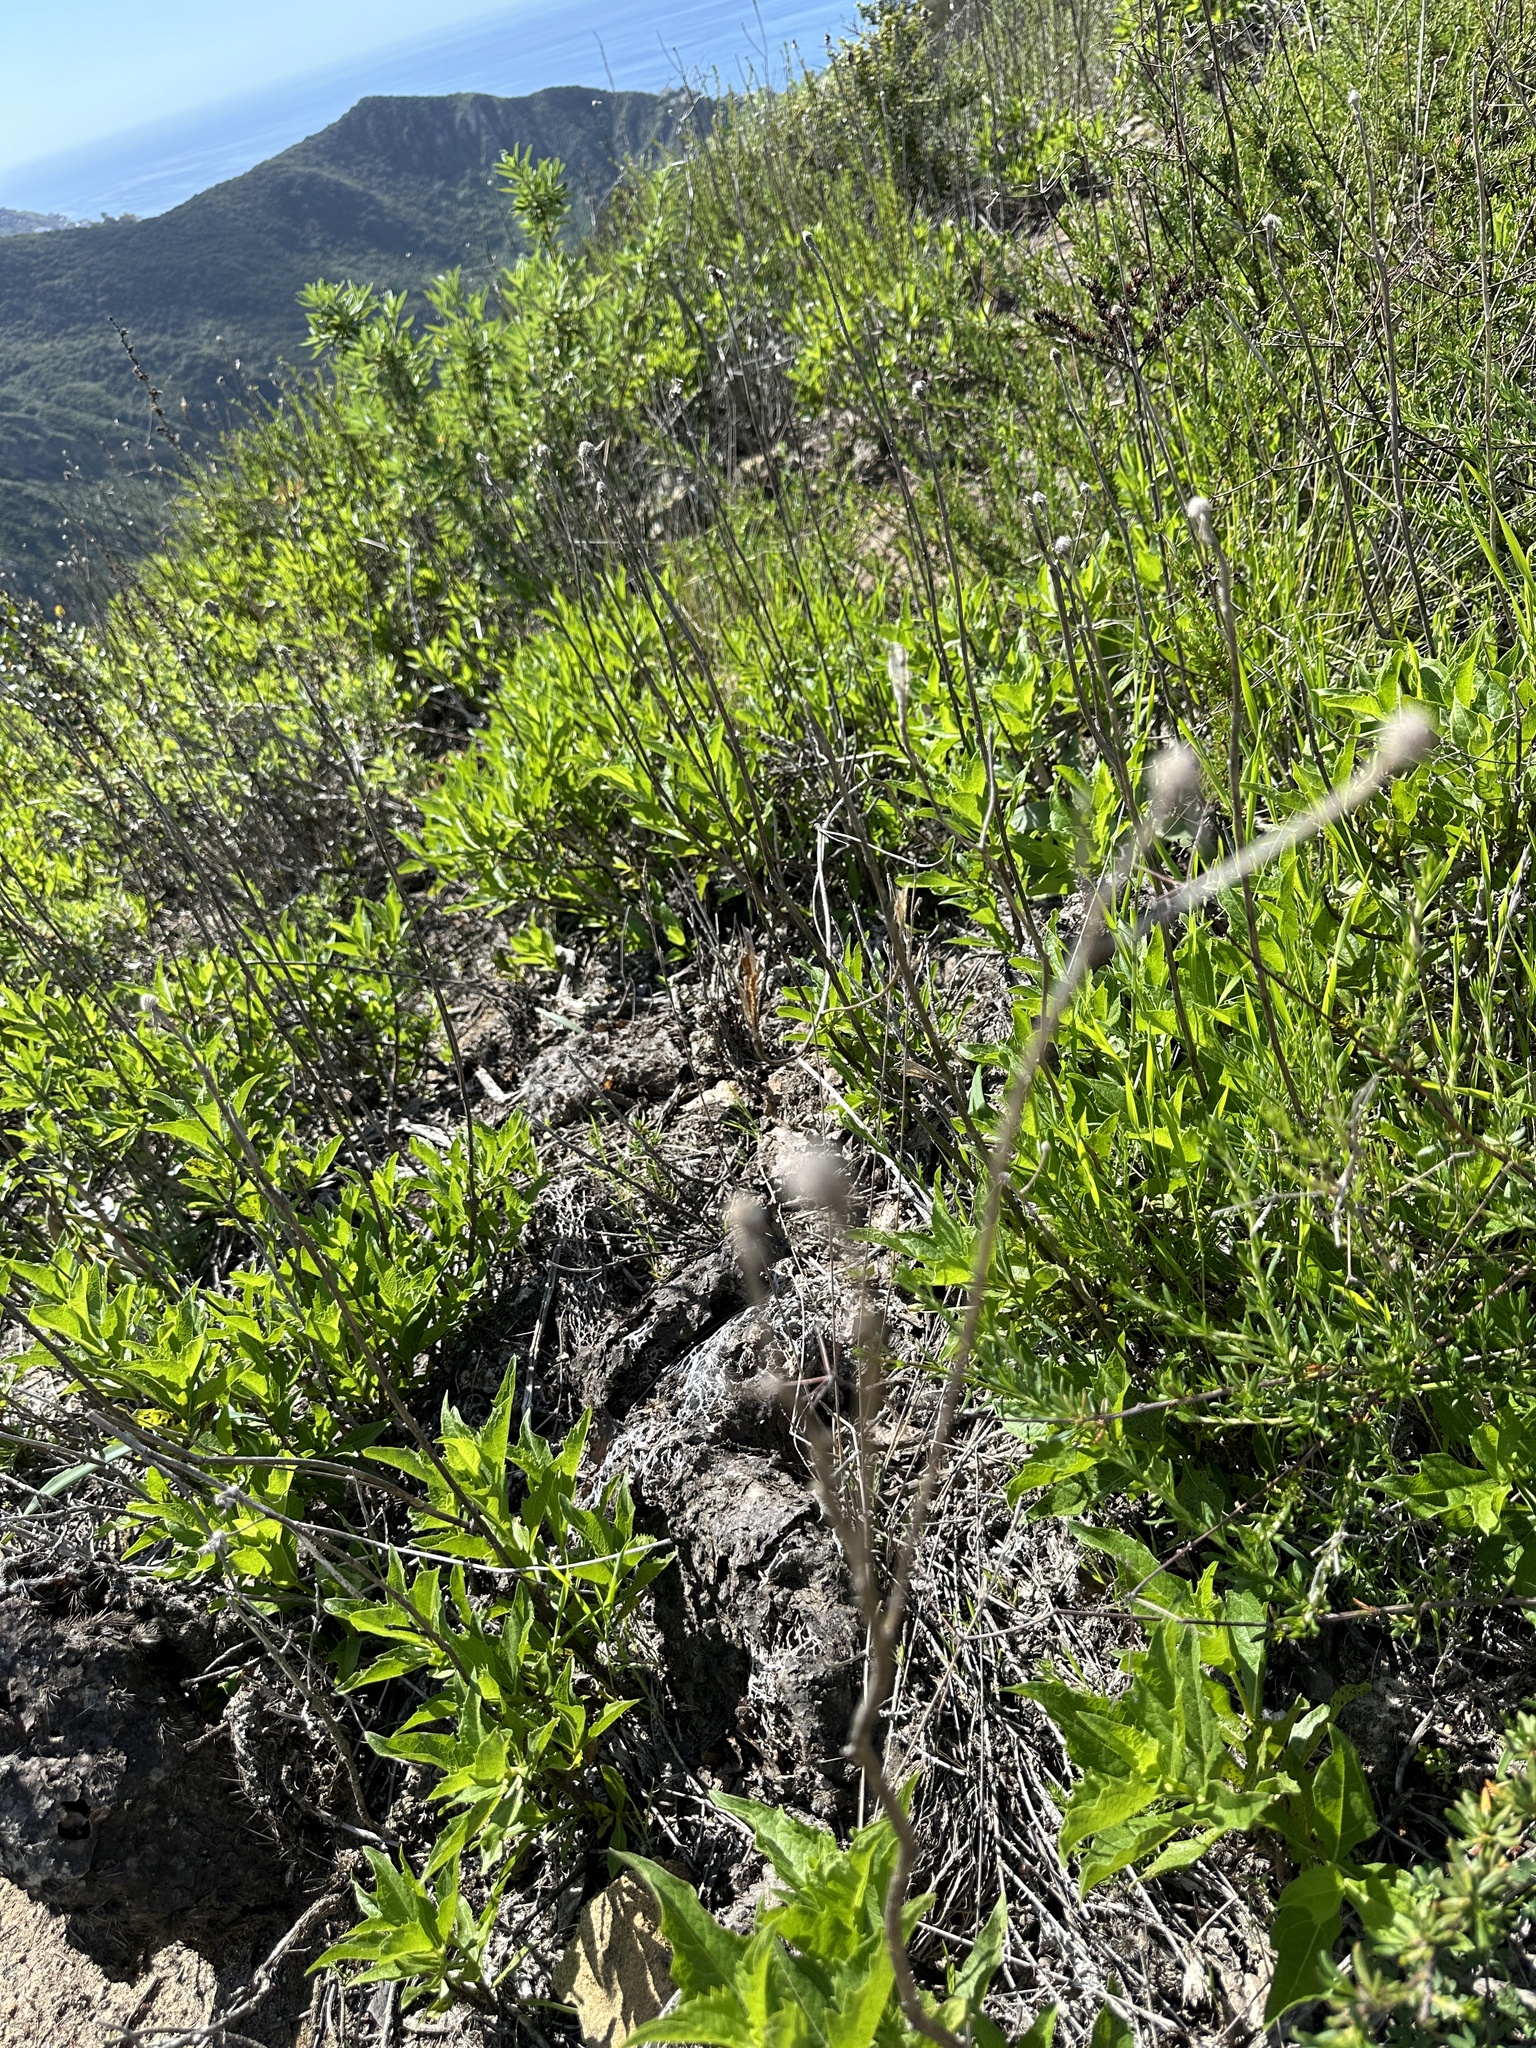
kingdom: Plantae
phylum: Tracheophyta
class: Magnoliopsida
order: Asterales
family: Asteraceae
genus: Verbesina
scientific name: Verbesina dissita
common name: Big-leaf crownbeard
